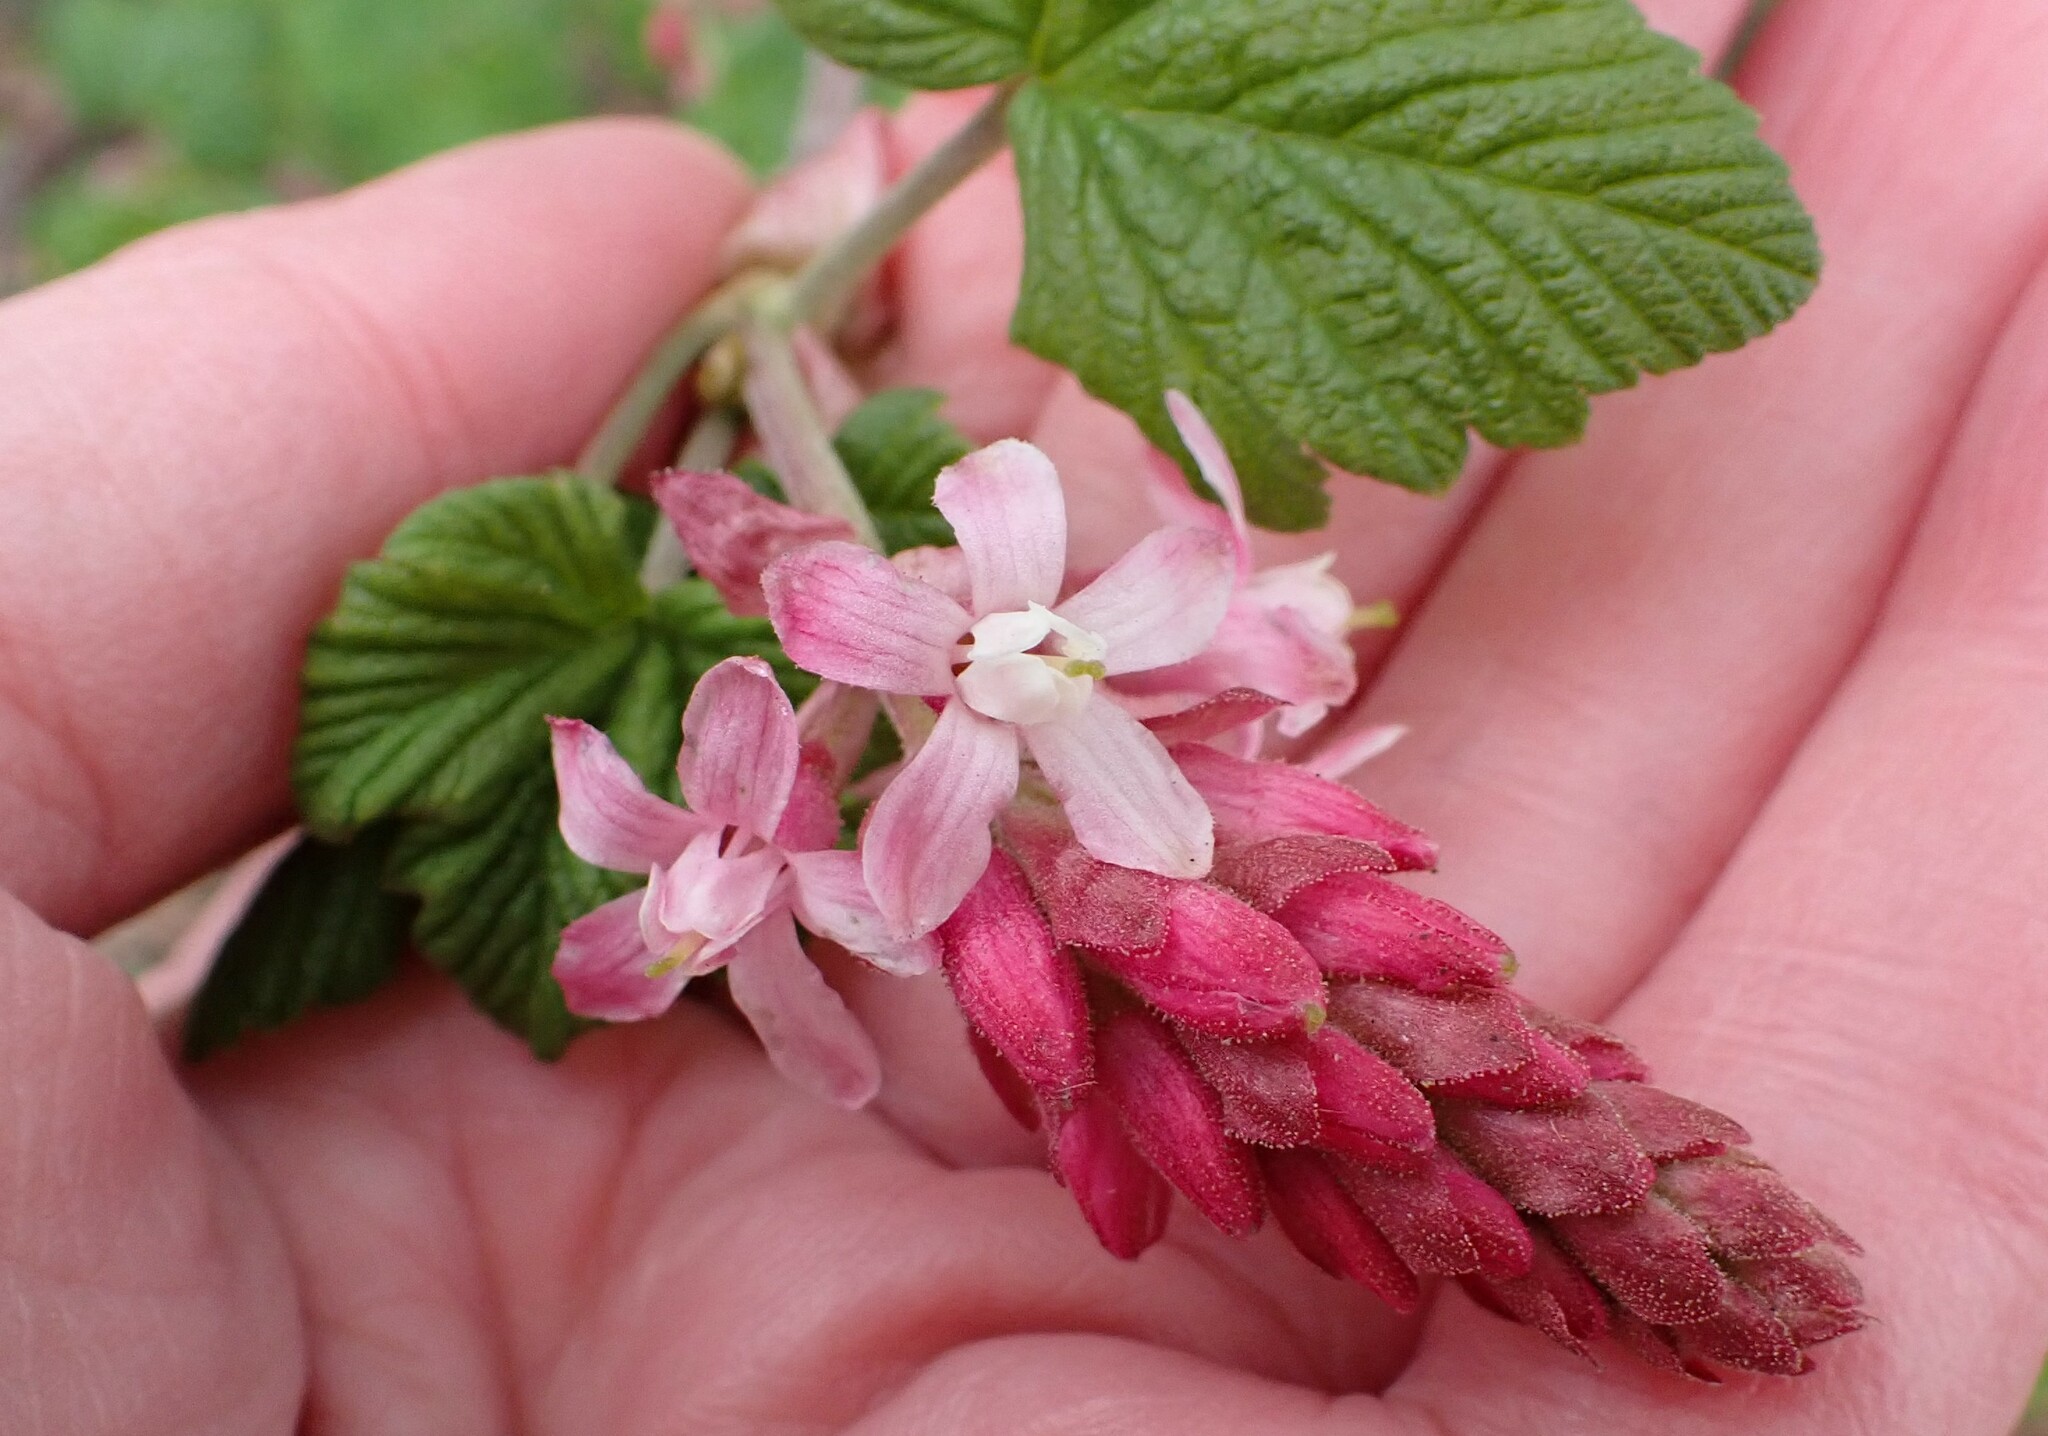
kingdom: Plantae
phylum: Tracheophyta
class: Magnoliopsida
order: Saxifragales
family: Grossulariaceae
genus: Ribes
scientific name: Ribes sanguineum
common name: Flowering currant
